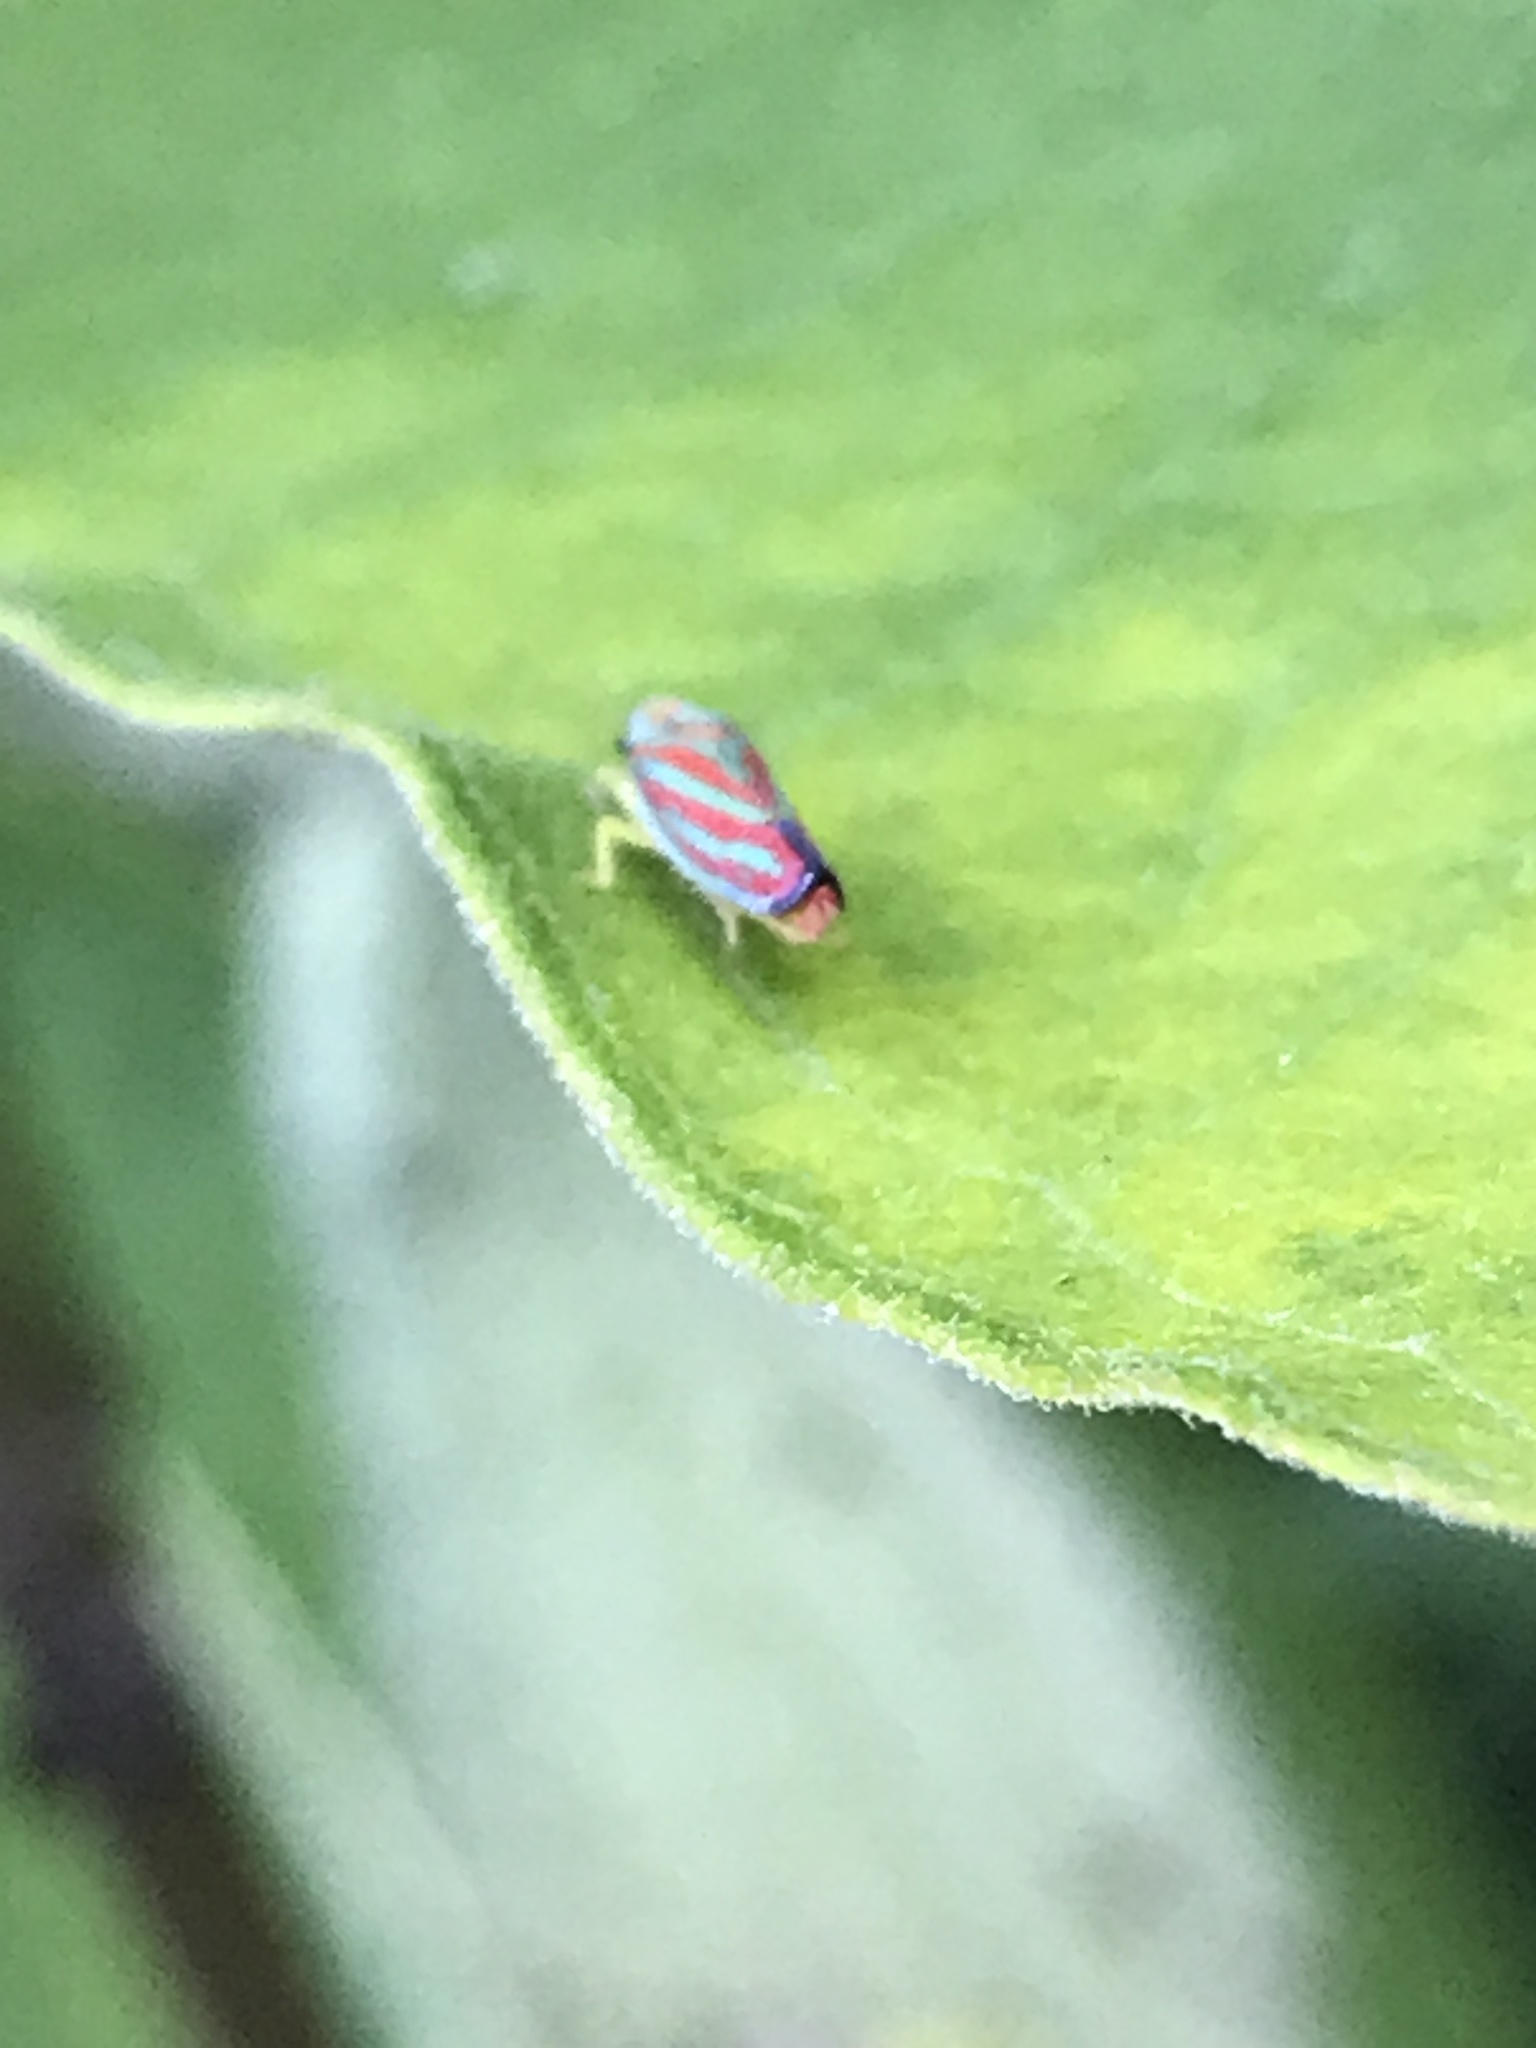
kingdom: Animalia
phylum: Arthropoda
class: Insecta
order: Hemiptera
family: Cicadellidae
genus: Graphocephala
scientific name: Graphocephala coccinea
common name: Candy-striped leafhopper
